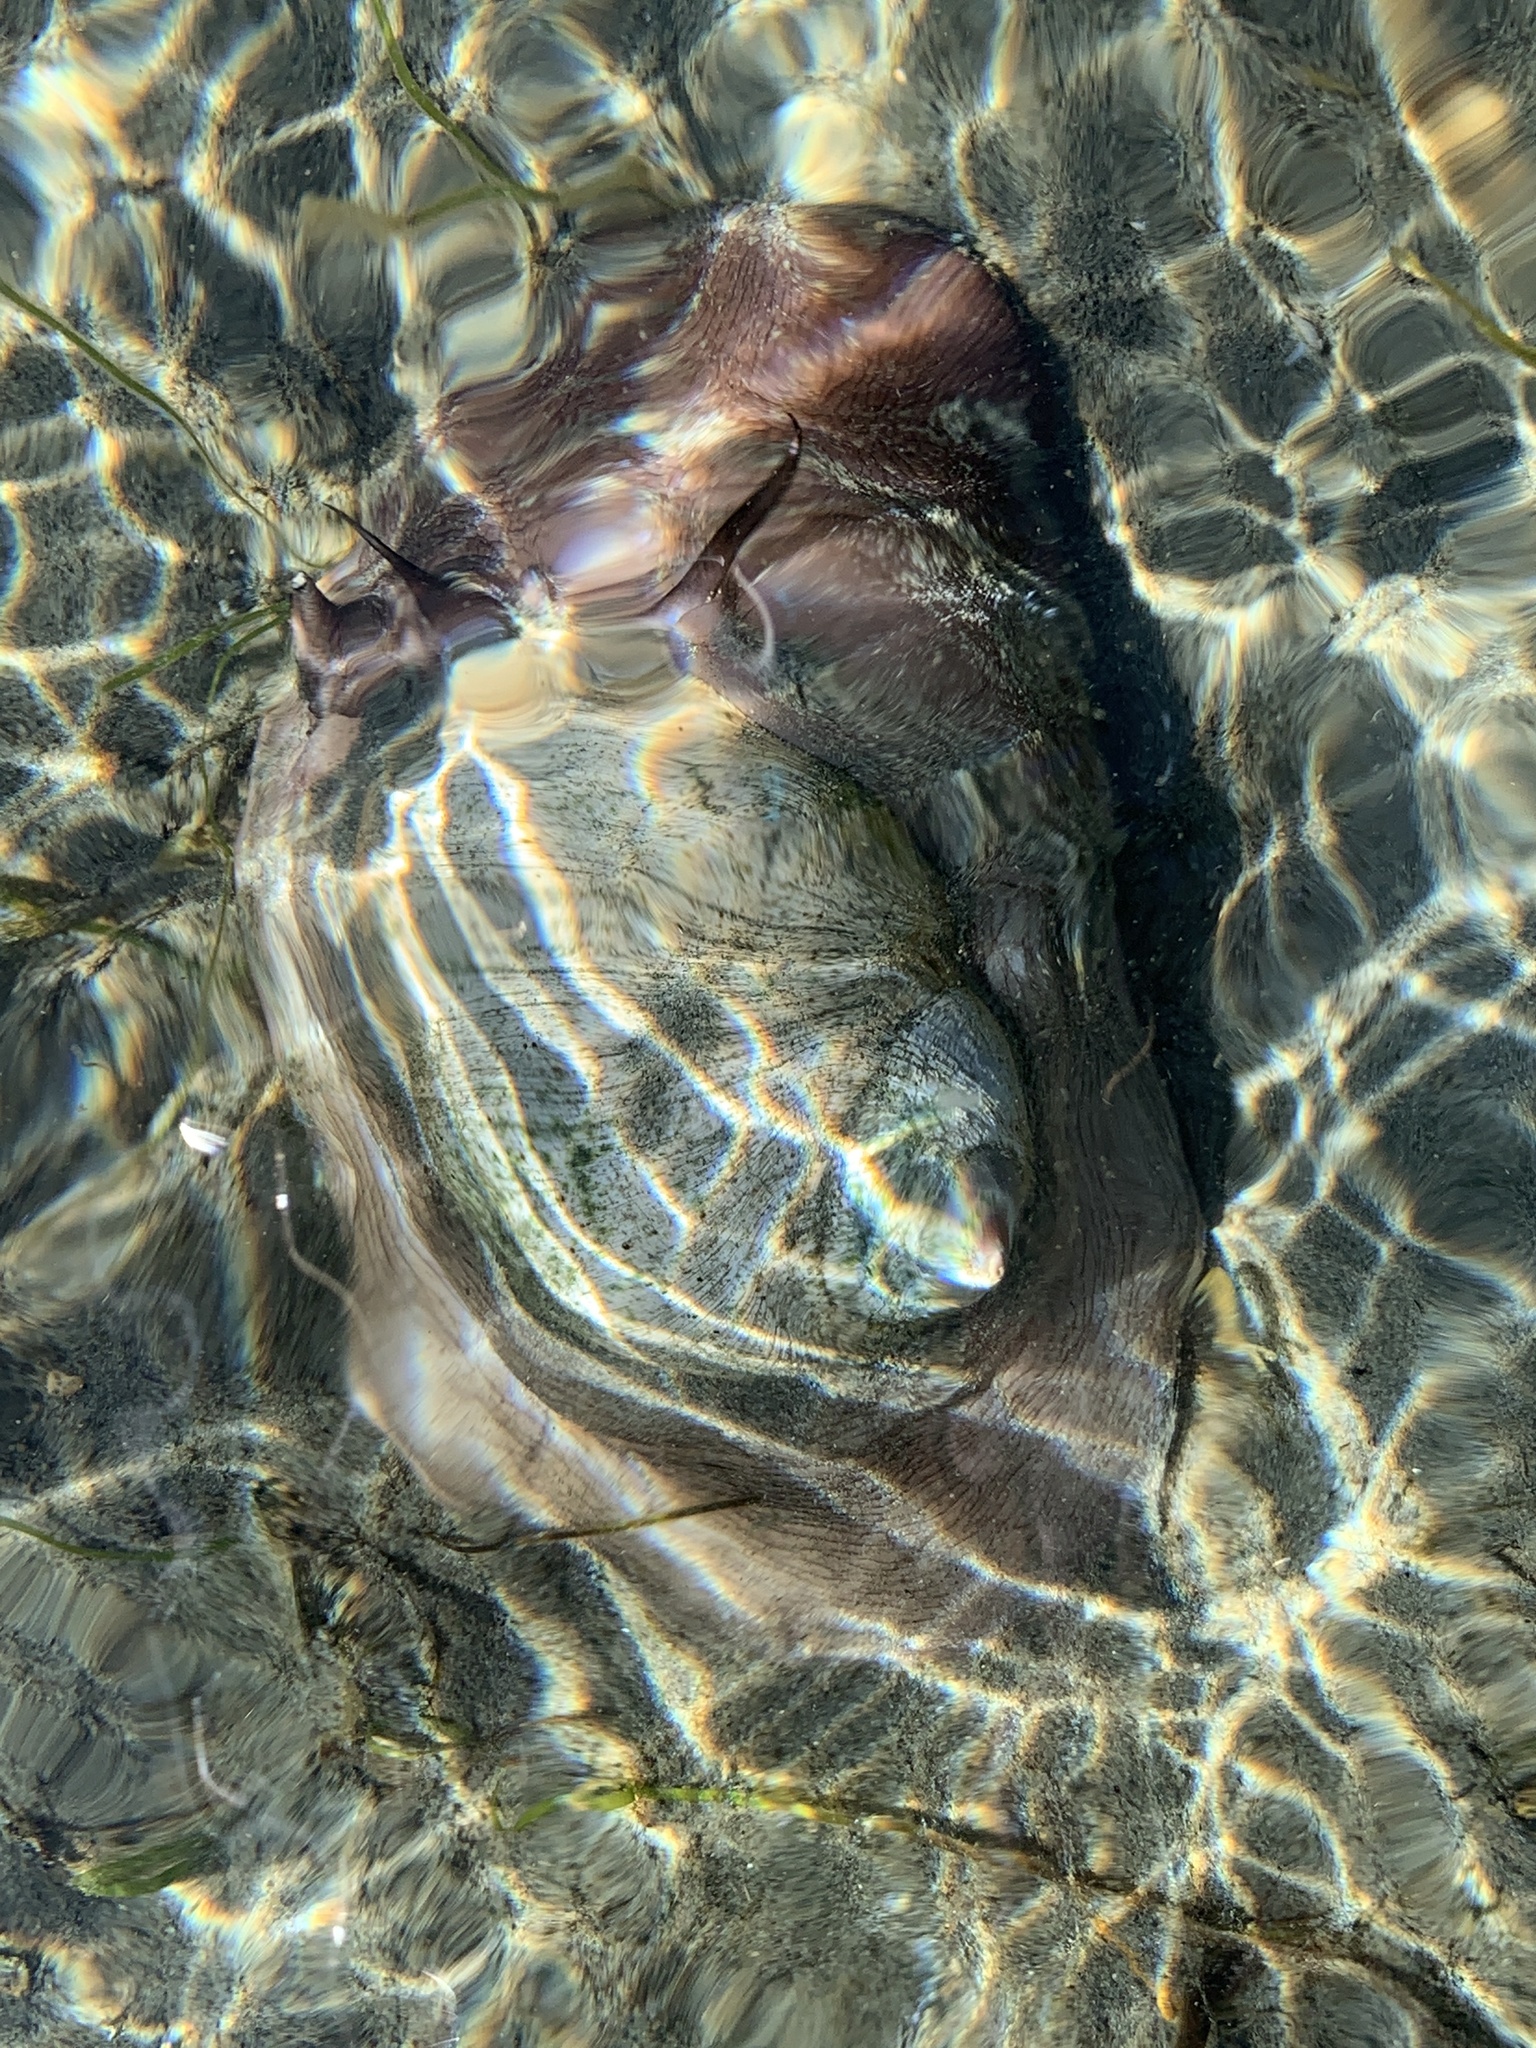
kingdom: Animalia
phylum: Mollusca
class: Gastropoda
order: Littorinimorpha
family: Naticidae
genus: Neverita
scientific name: Neverita lewisii
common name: Lewis' moonsnail
